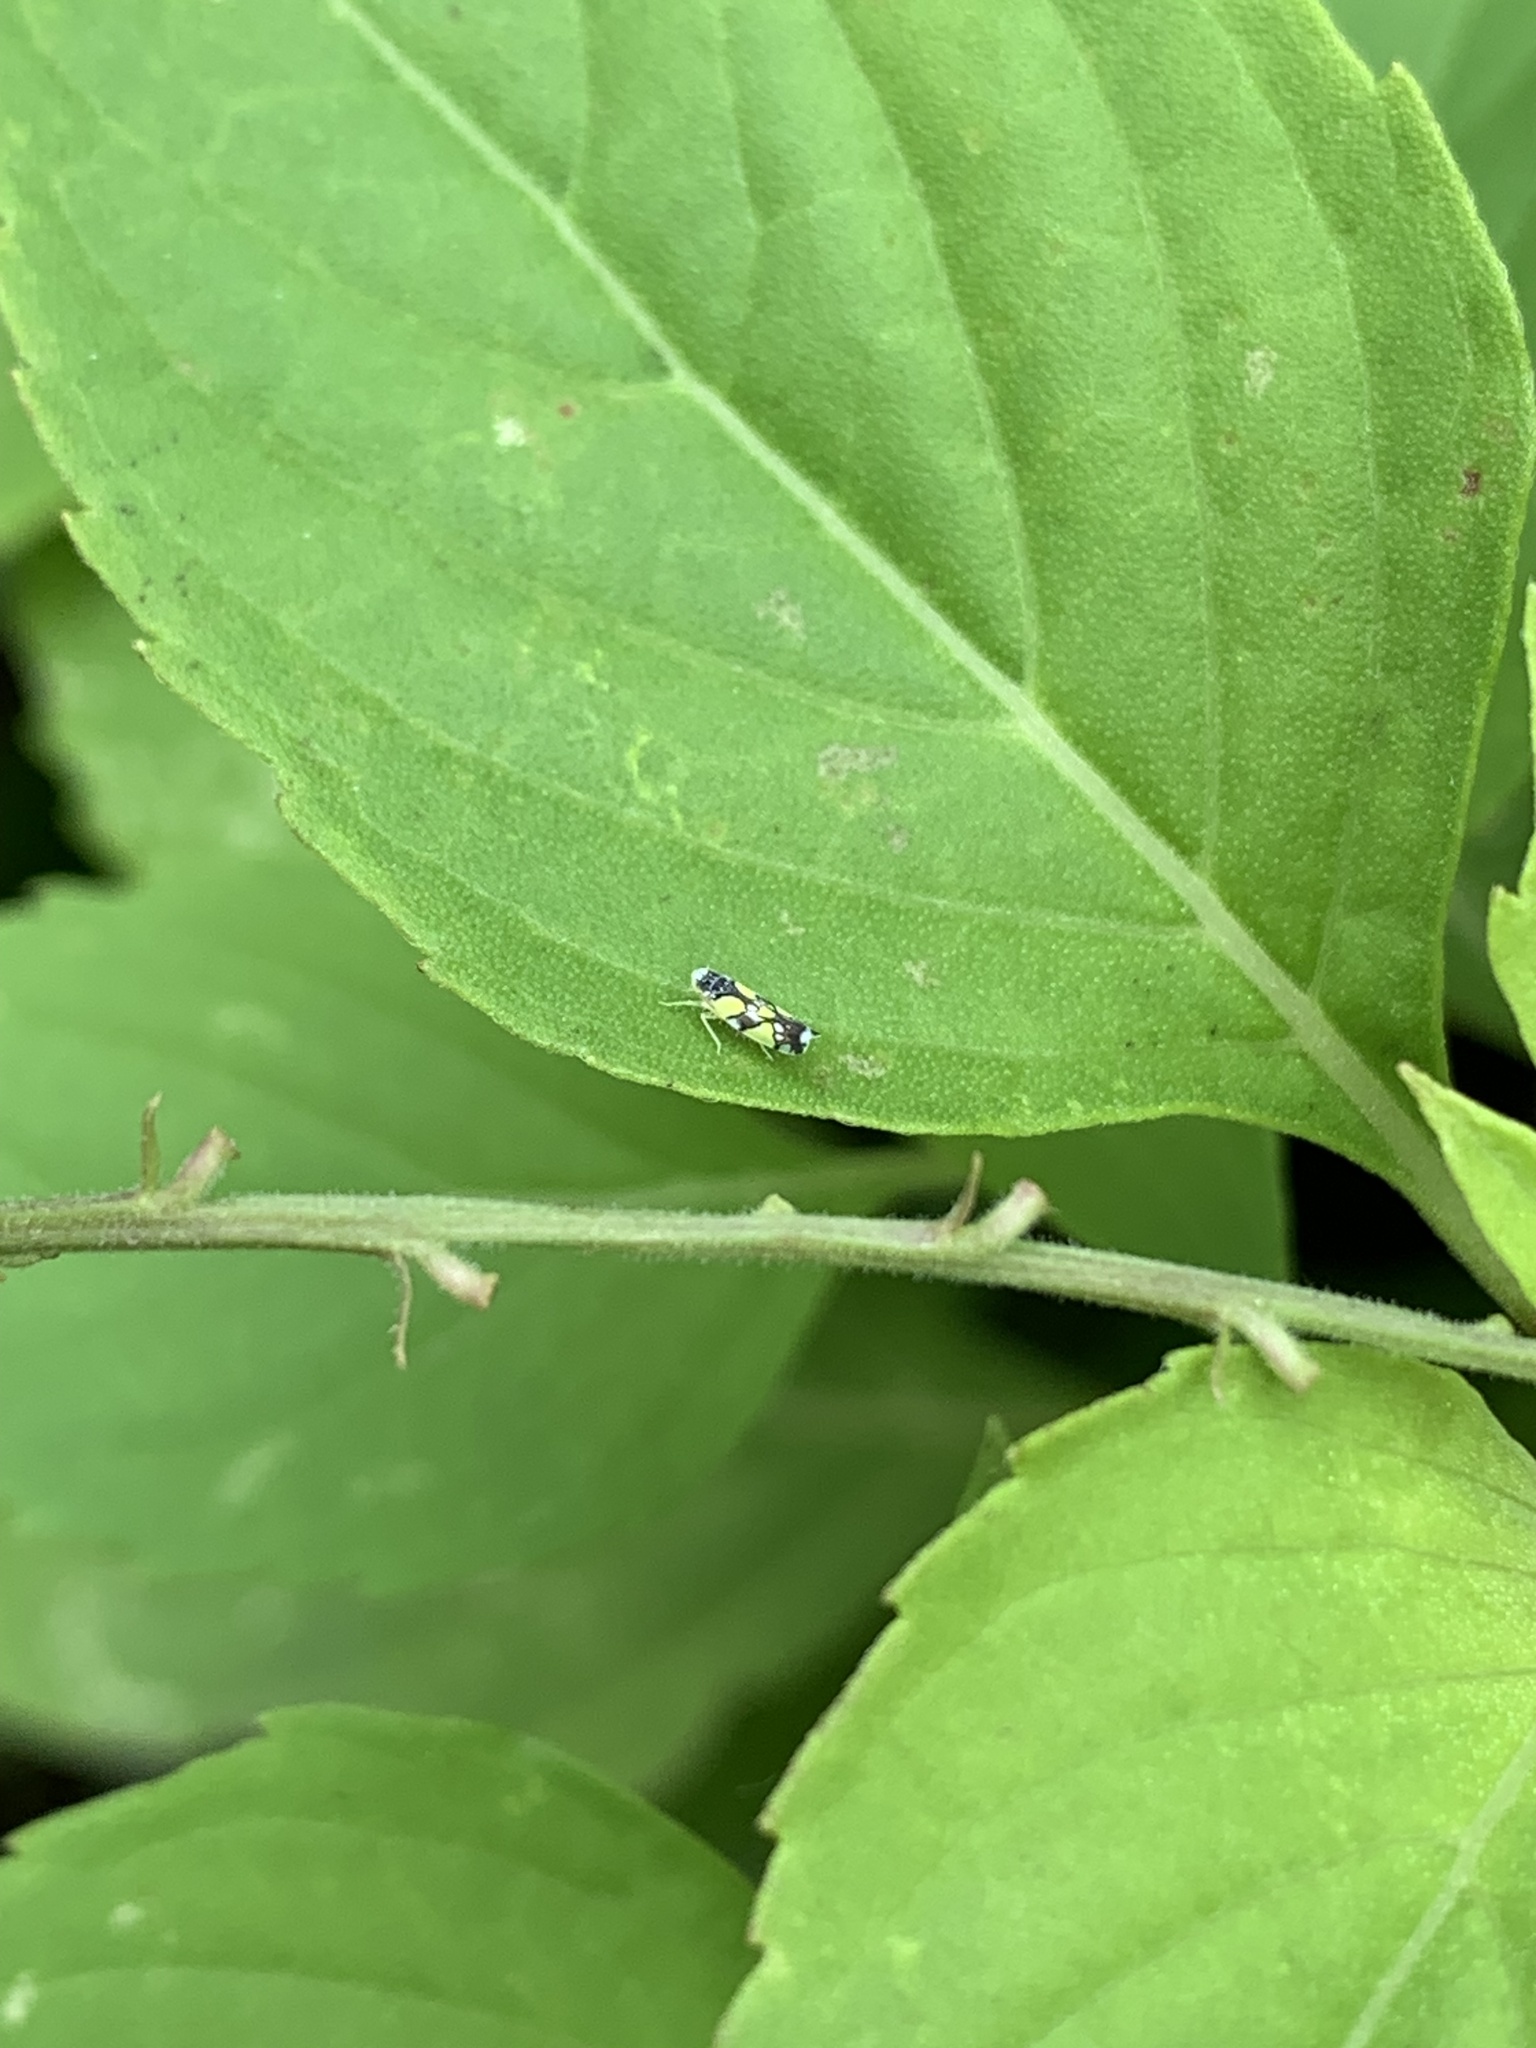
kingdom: Animalia
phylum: Arthropoda
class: Insecta
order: Hemiptera
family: Cicadellidae
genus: Protalebrella
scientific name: Protalebrella brasiliensis
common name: Brasilian leafhopper
